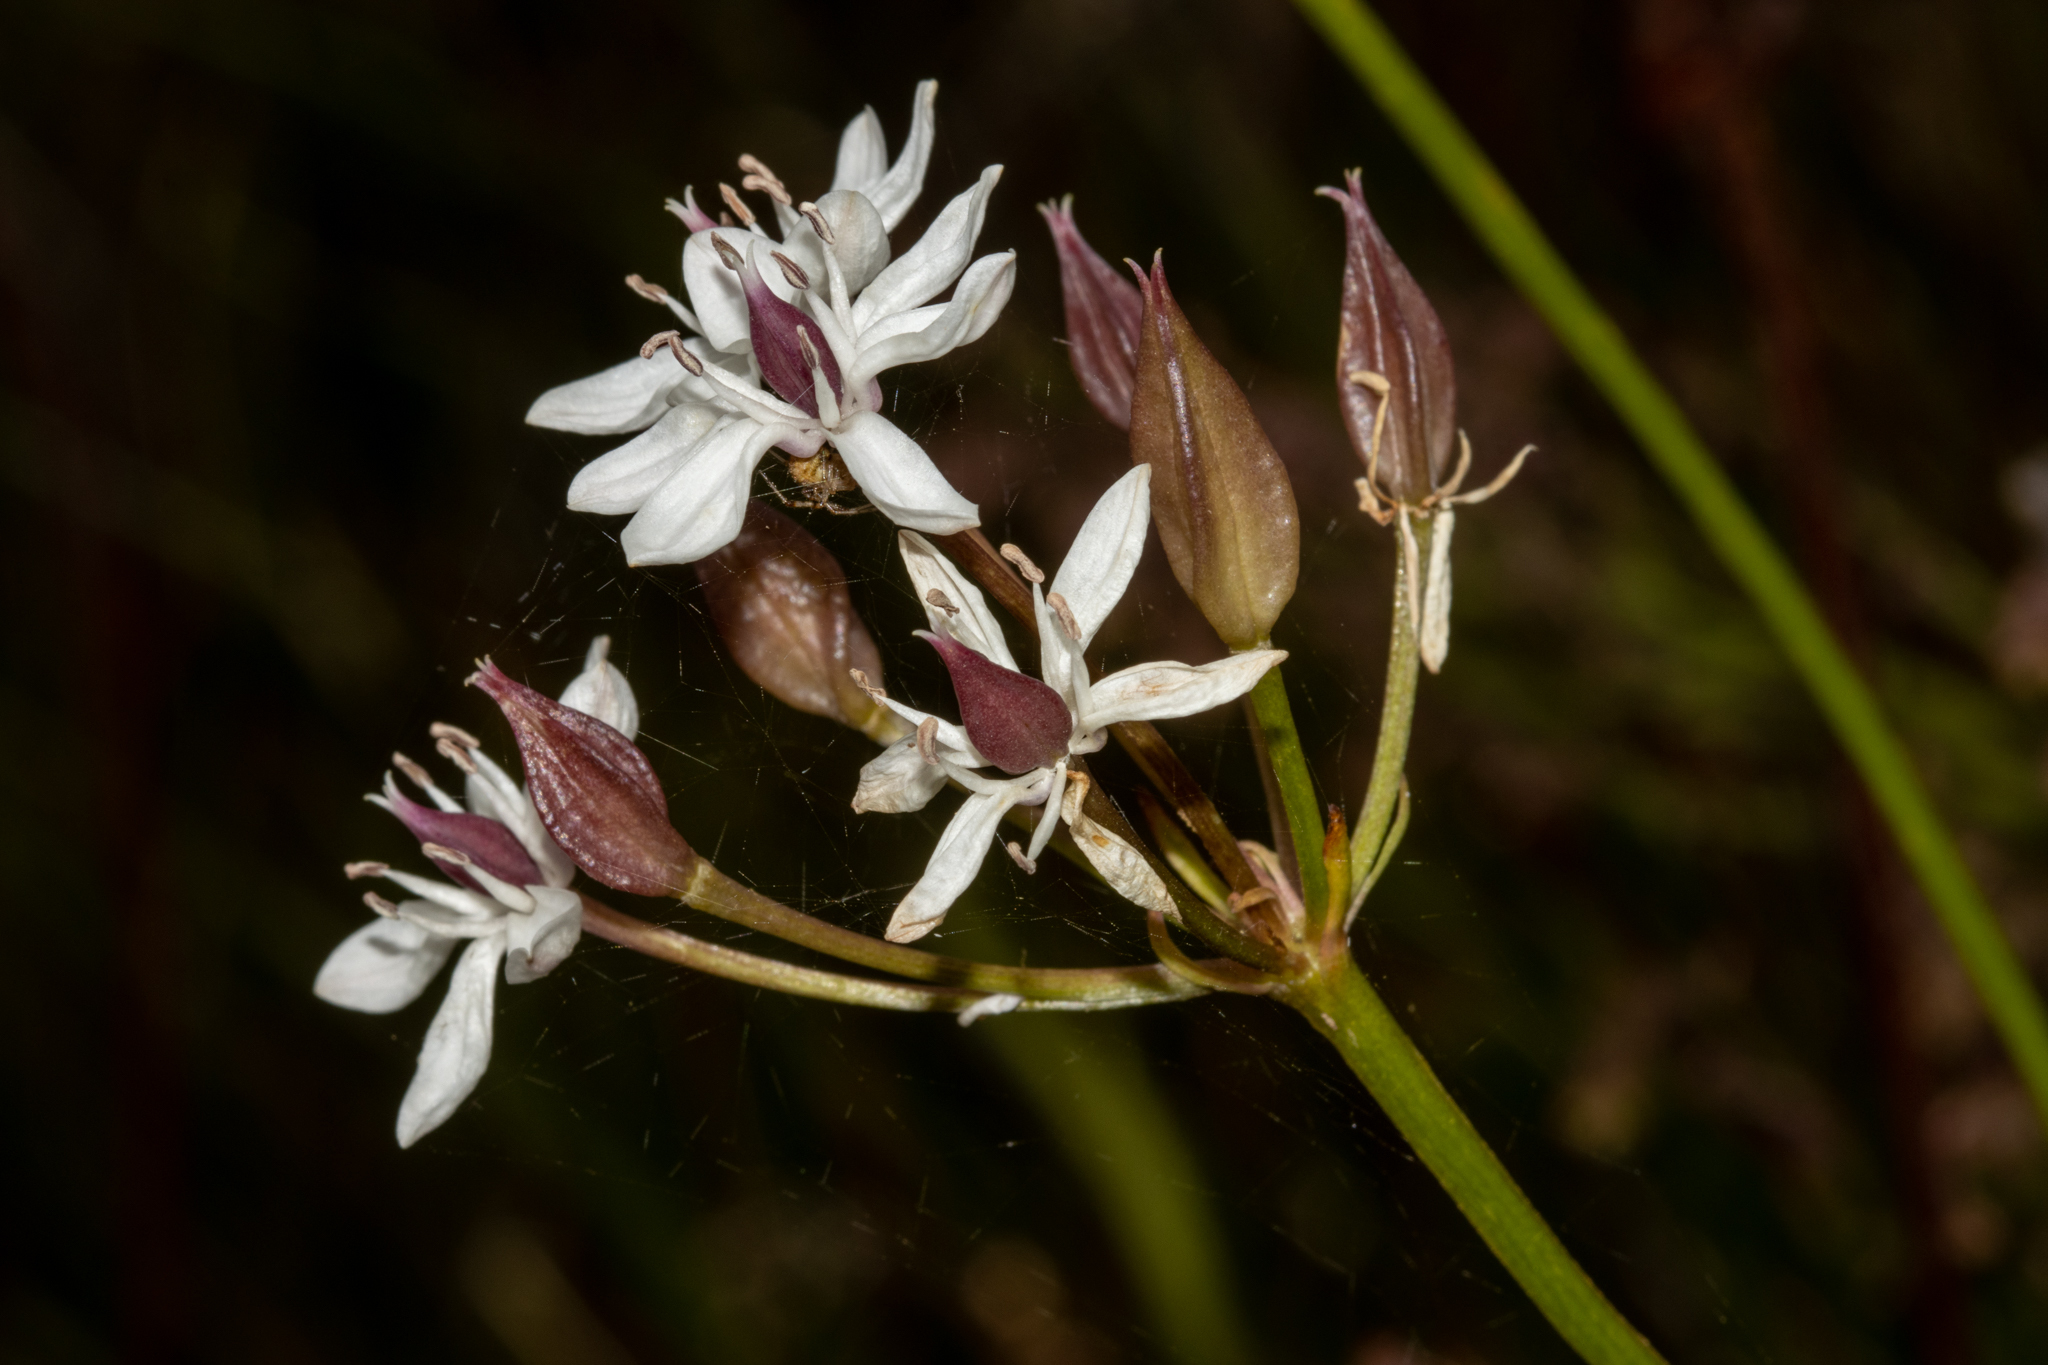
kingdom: Plantae
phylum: Tracheophyta
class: Liliopsida
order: Liliales
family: Colchicaceae
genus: Burchardia
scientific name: Burchardia umbellata
